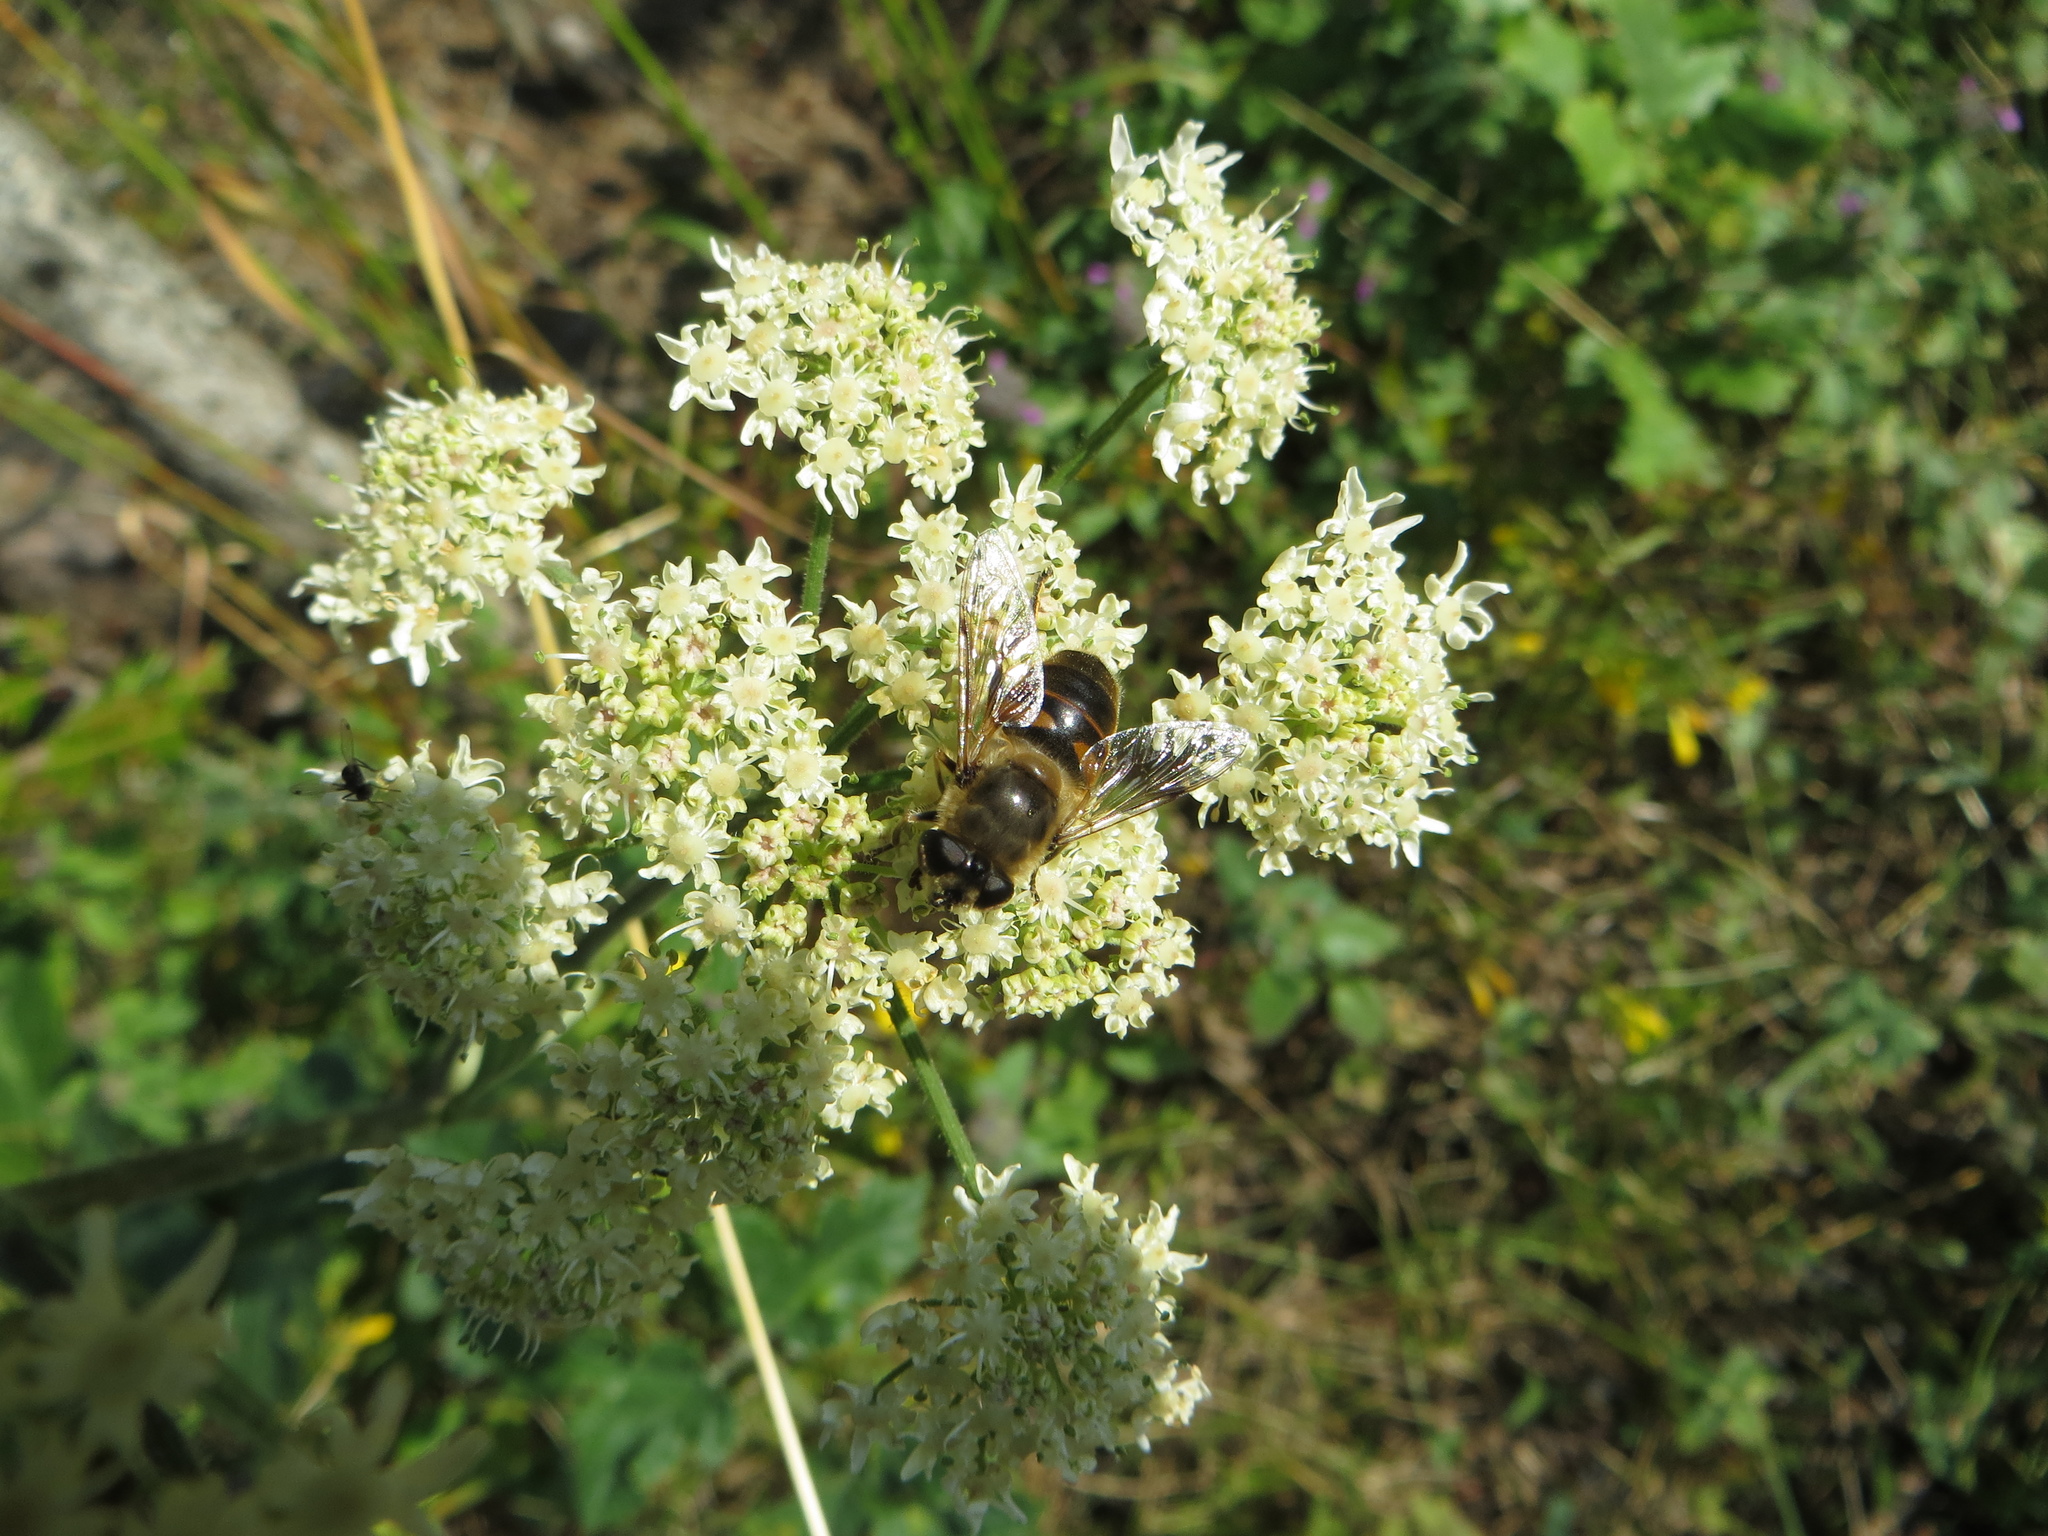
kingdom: Animalia
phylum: Arthropoda
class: Insecta
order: Diptera
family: Syrphidae
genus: Eristalis
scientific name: Eristalis tenax
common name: Drone fly
